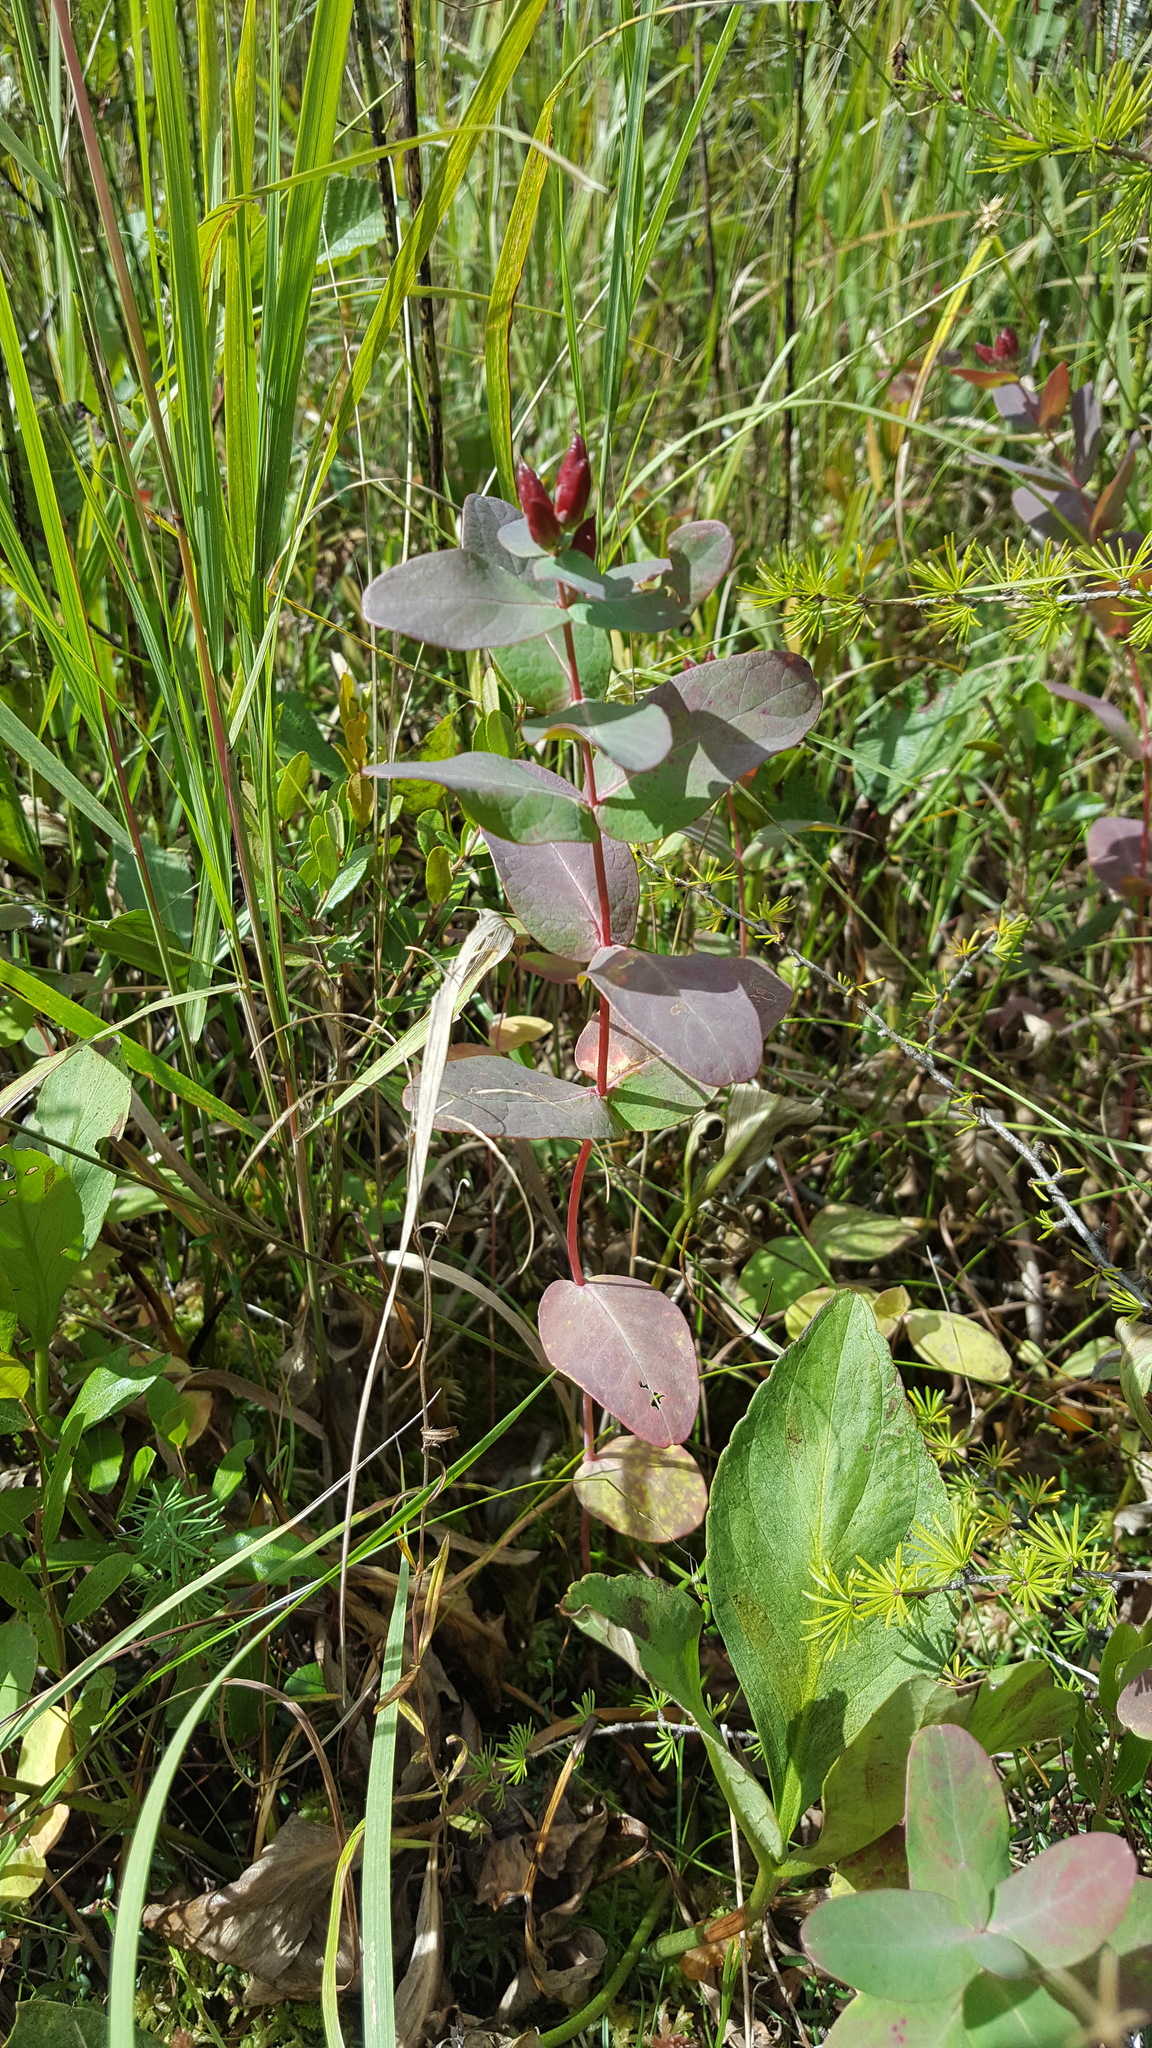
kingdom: Plantae
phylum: Tracheophyta
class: Magnoliopsida
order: Malpighiales
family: Hypericaceae
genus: Triadenum
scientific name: Triadenum fraseri
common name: Fraser's marsh st. johnswort
